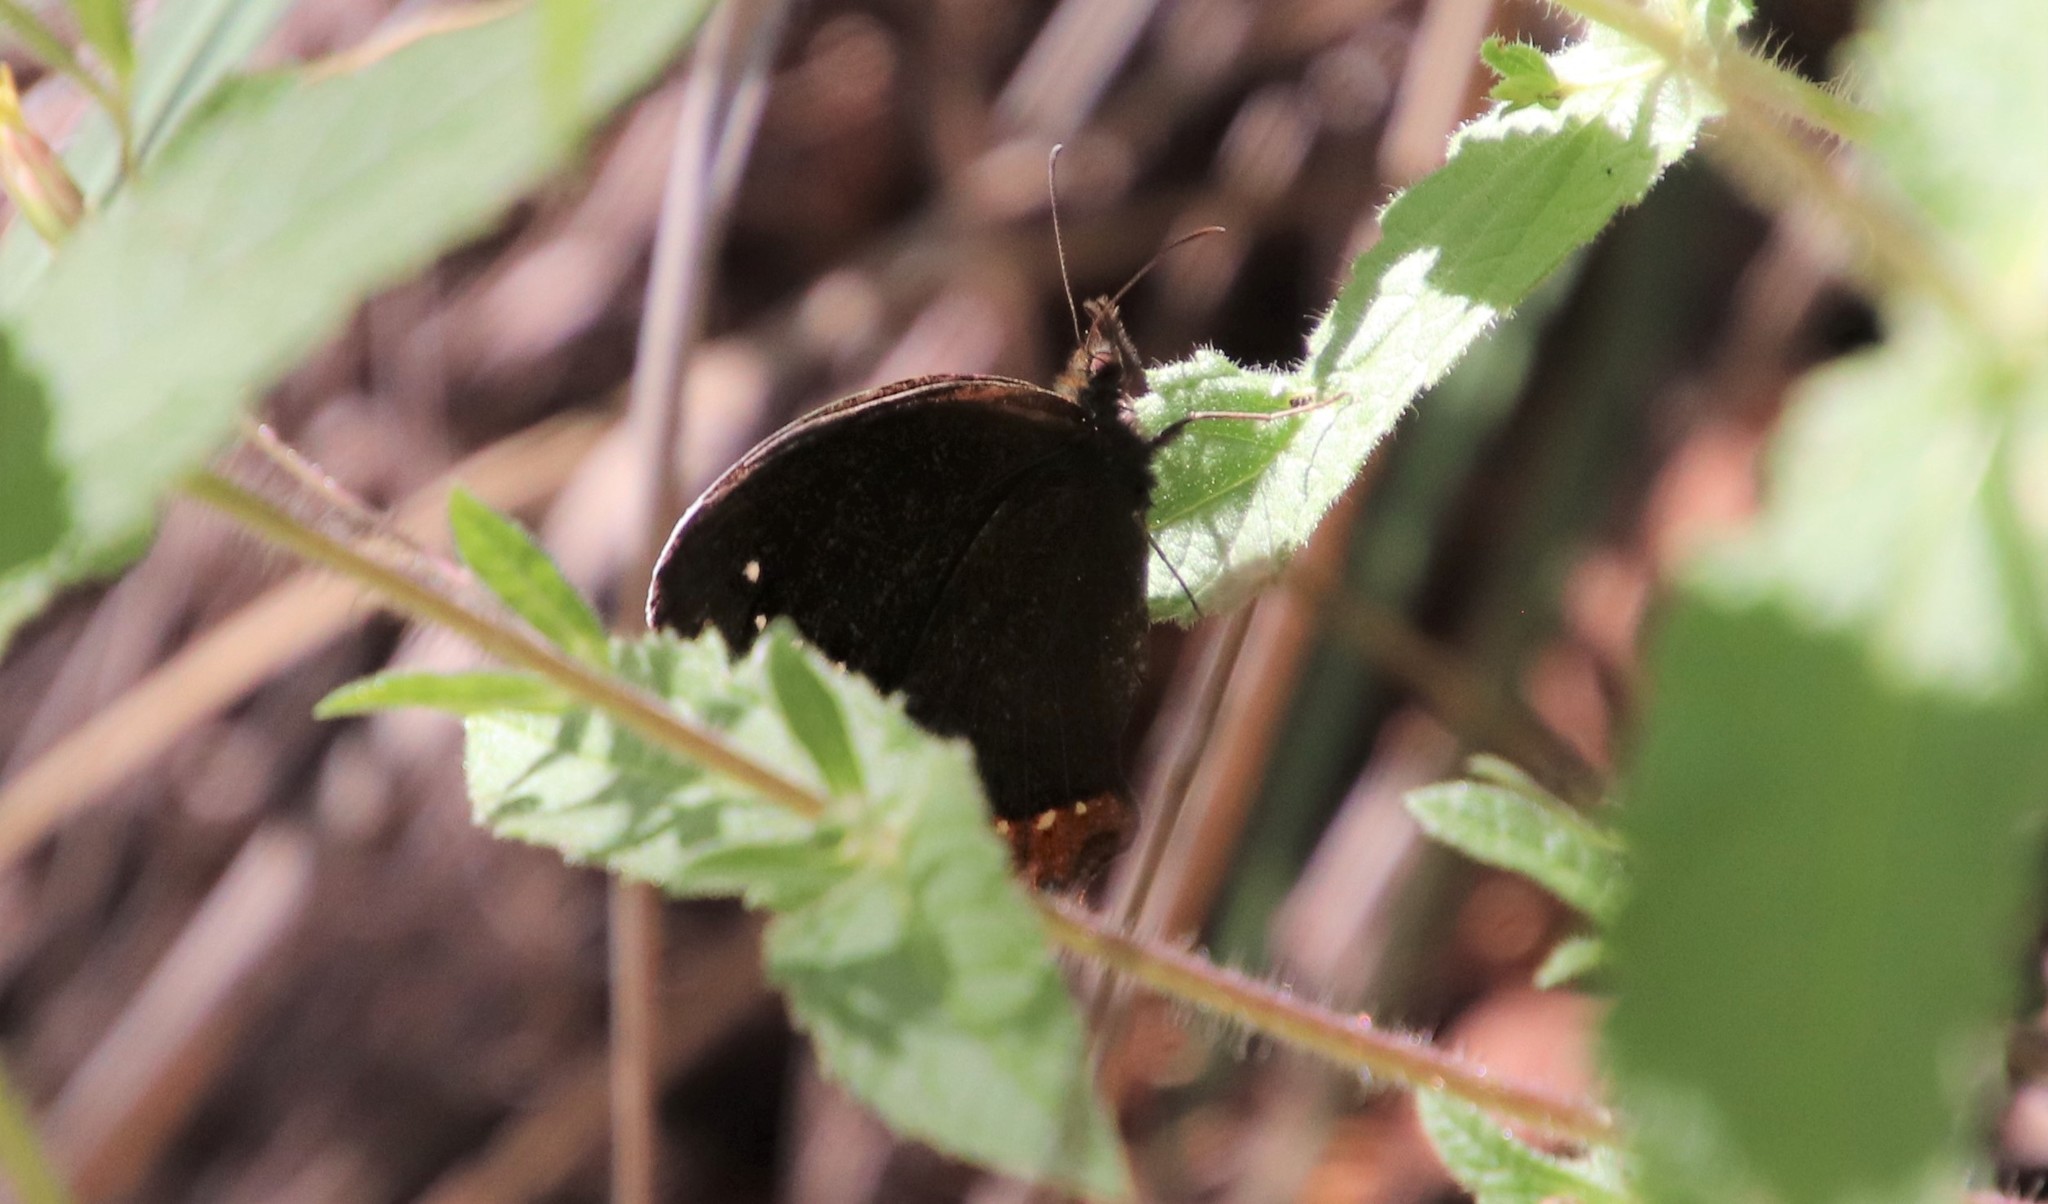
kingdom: Animalia
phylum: Arthropoda
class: Insecta
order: Lepidoptera
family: Nymphalidae
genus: Gyrocheilus
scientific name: Gyrocheilus patrobas
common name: Red-bordered satyr
